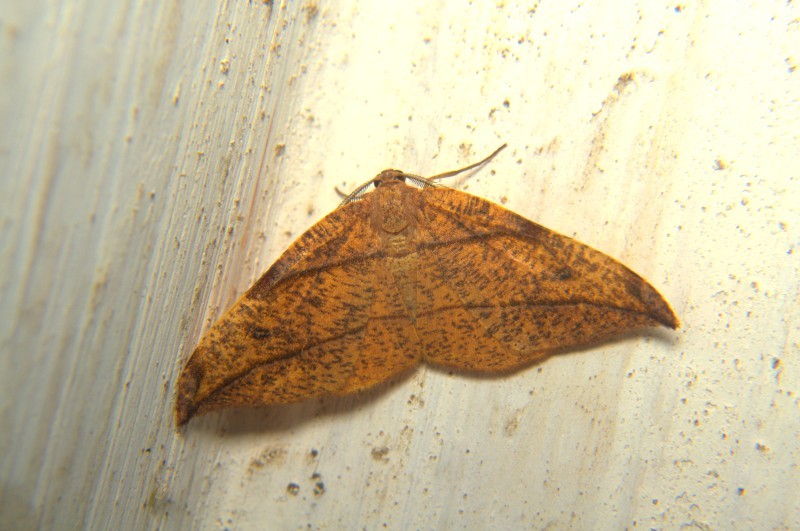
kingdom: Animalia
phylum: Arthropoda
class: Insecta
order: Lepidoptera
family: Geometridae
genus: Hypochrosis
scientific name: Hypochrosis hyadaria
